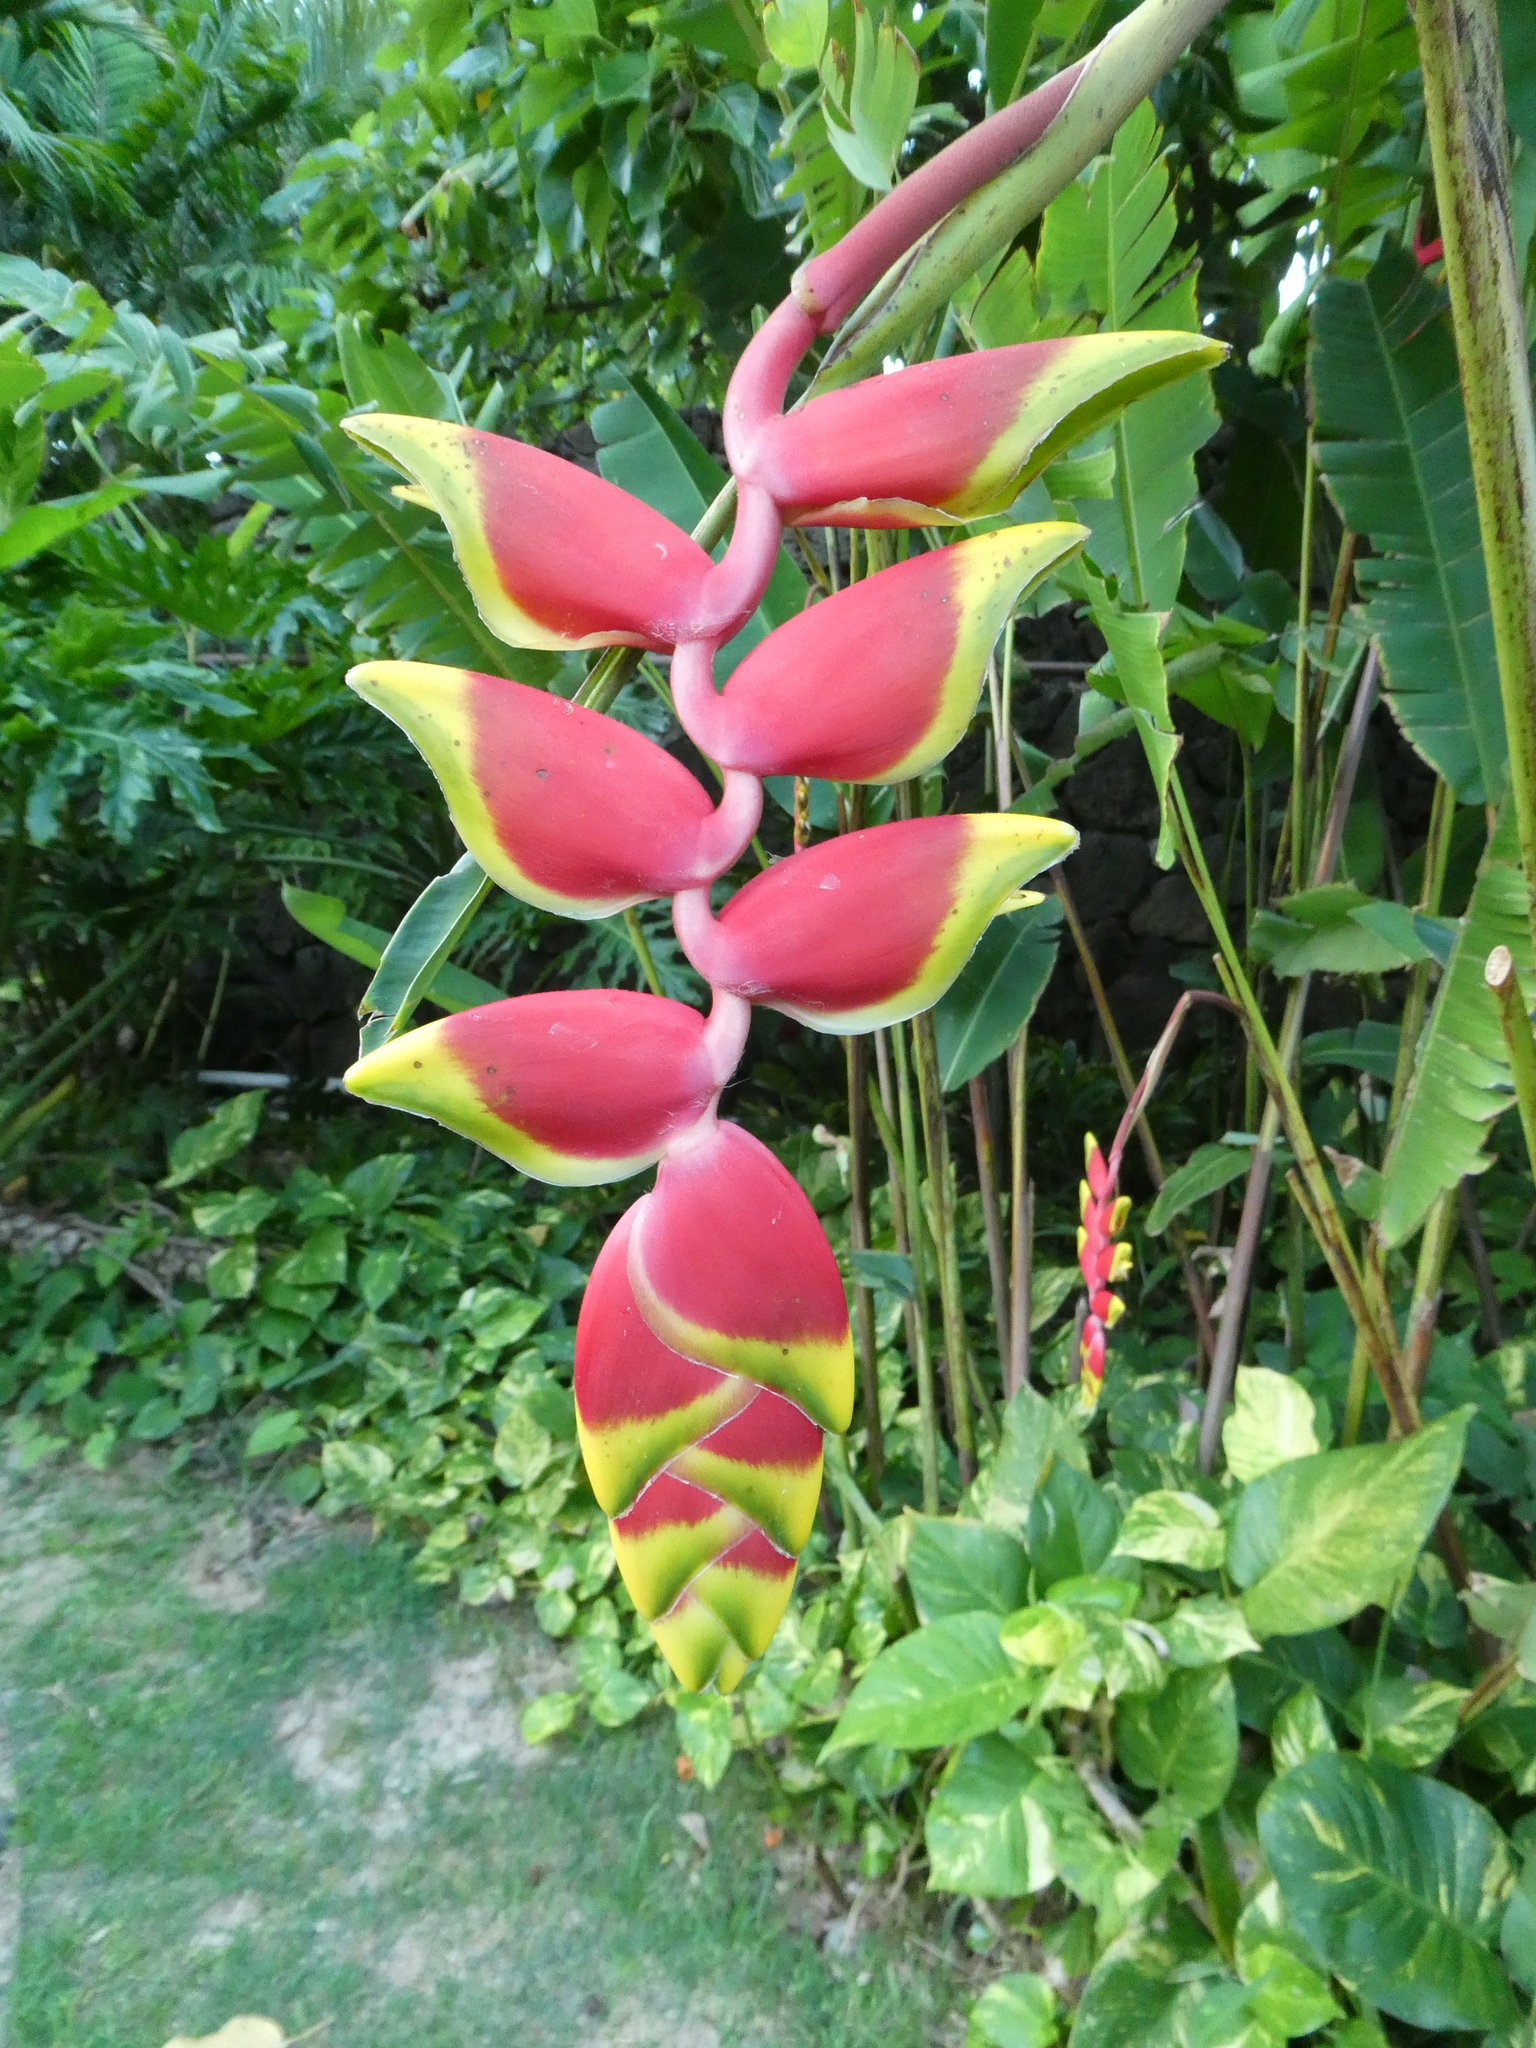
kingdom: Plantae
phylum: Tracheophyta
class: Liliopsida
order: Zingiberales
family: Heliconiaceae
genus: Heliconia
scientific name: Heliconia rostrata
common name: False bird of paradise
